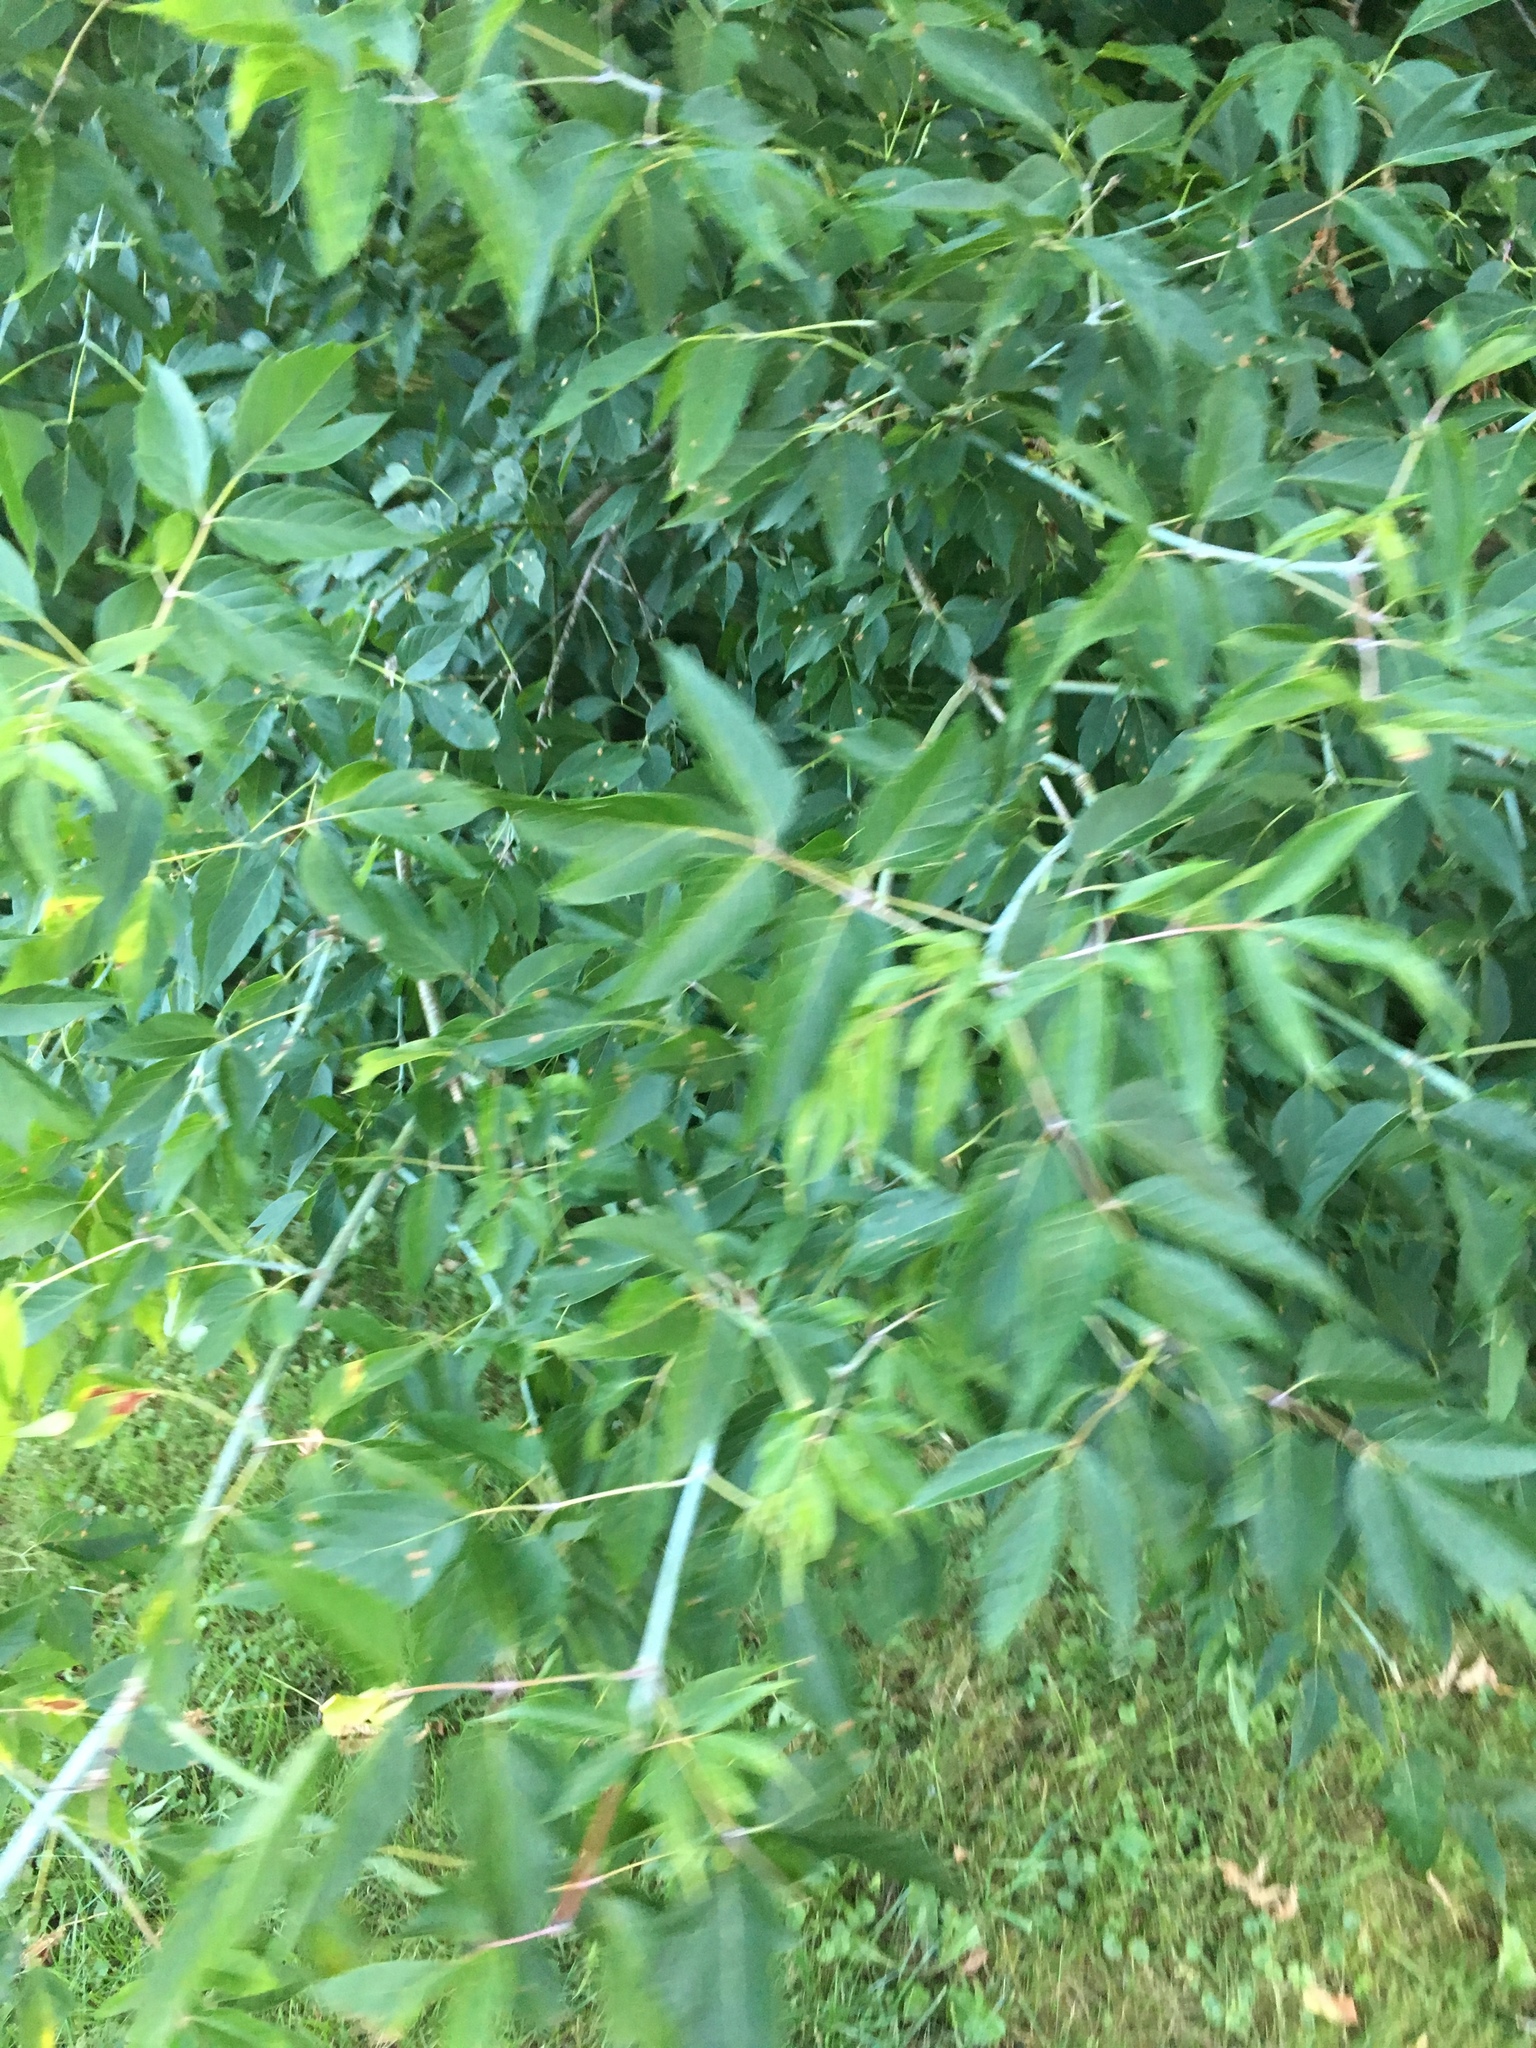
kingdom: Plantae
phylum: Tracheophyta
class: Magnoliopsida
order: Sapindales
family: Sapindaceae
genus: Acer
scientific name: Acer negundo
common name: Ashleaf maple
